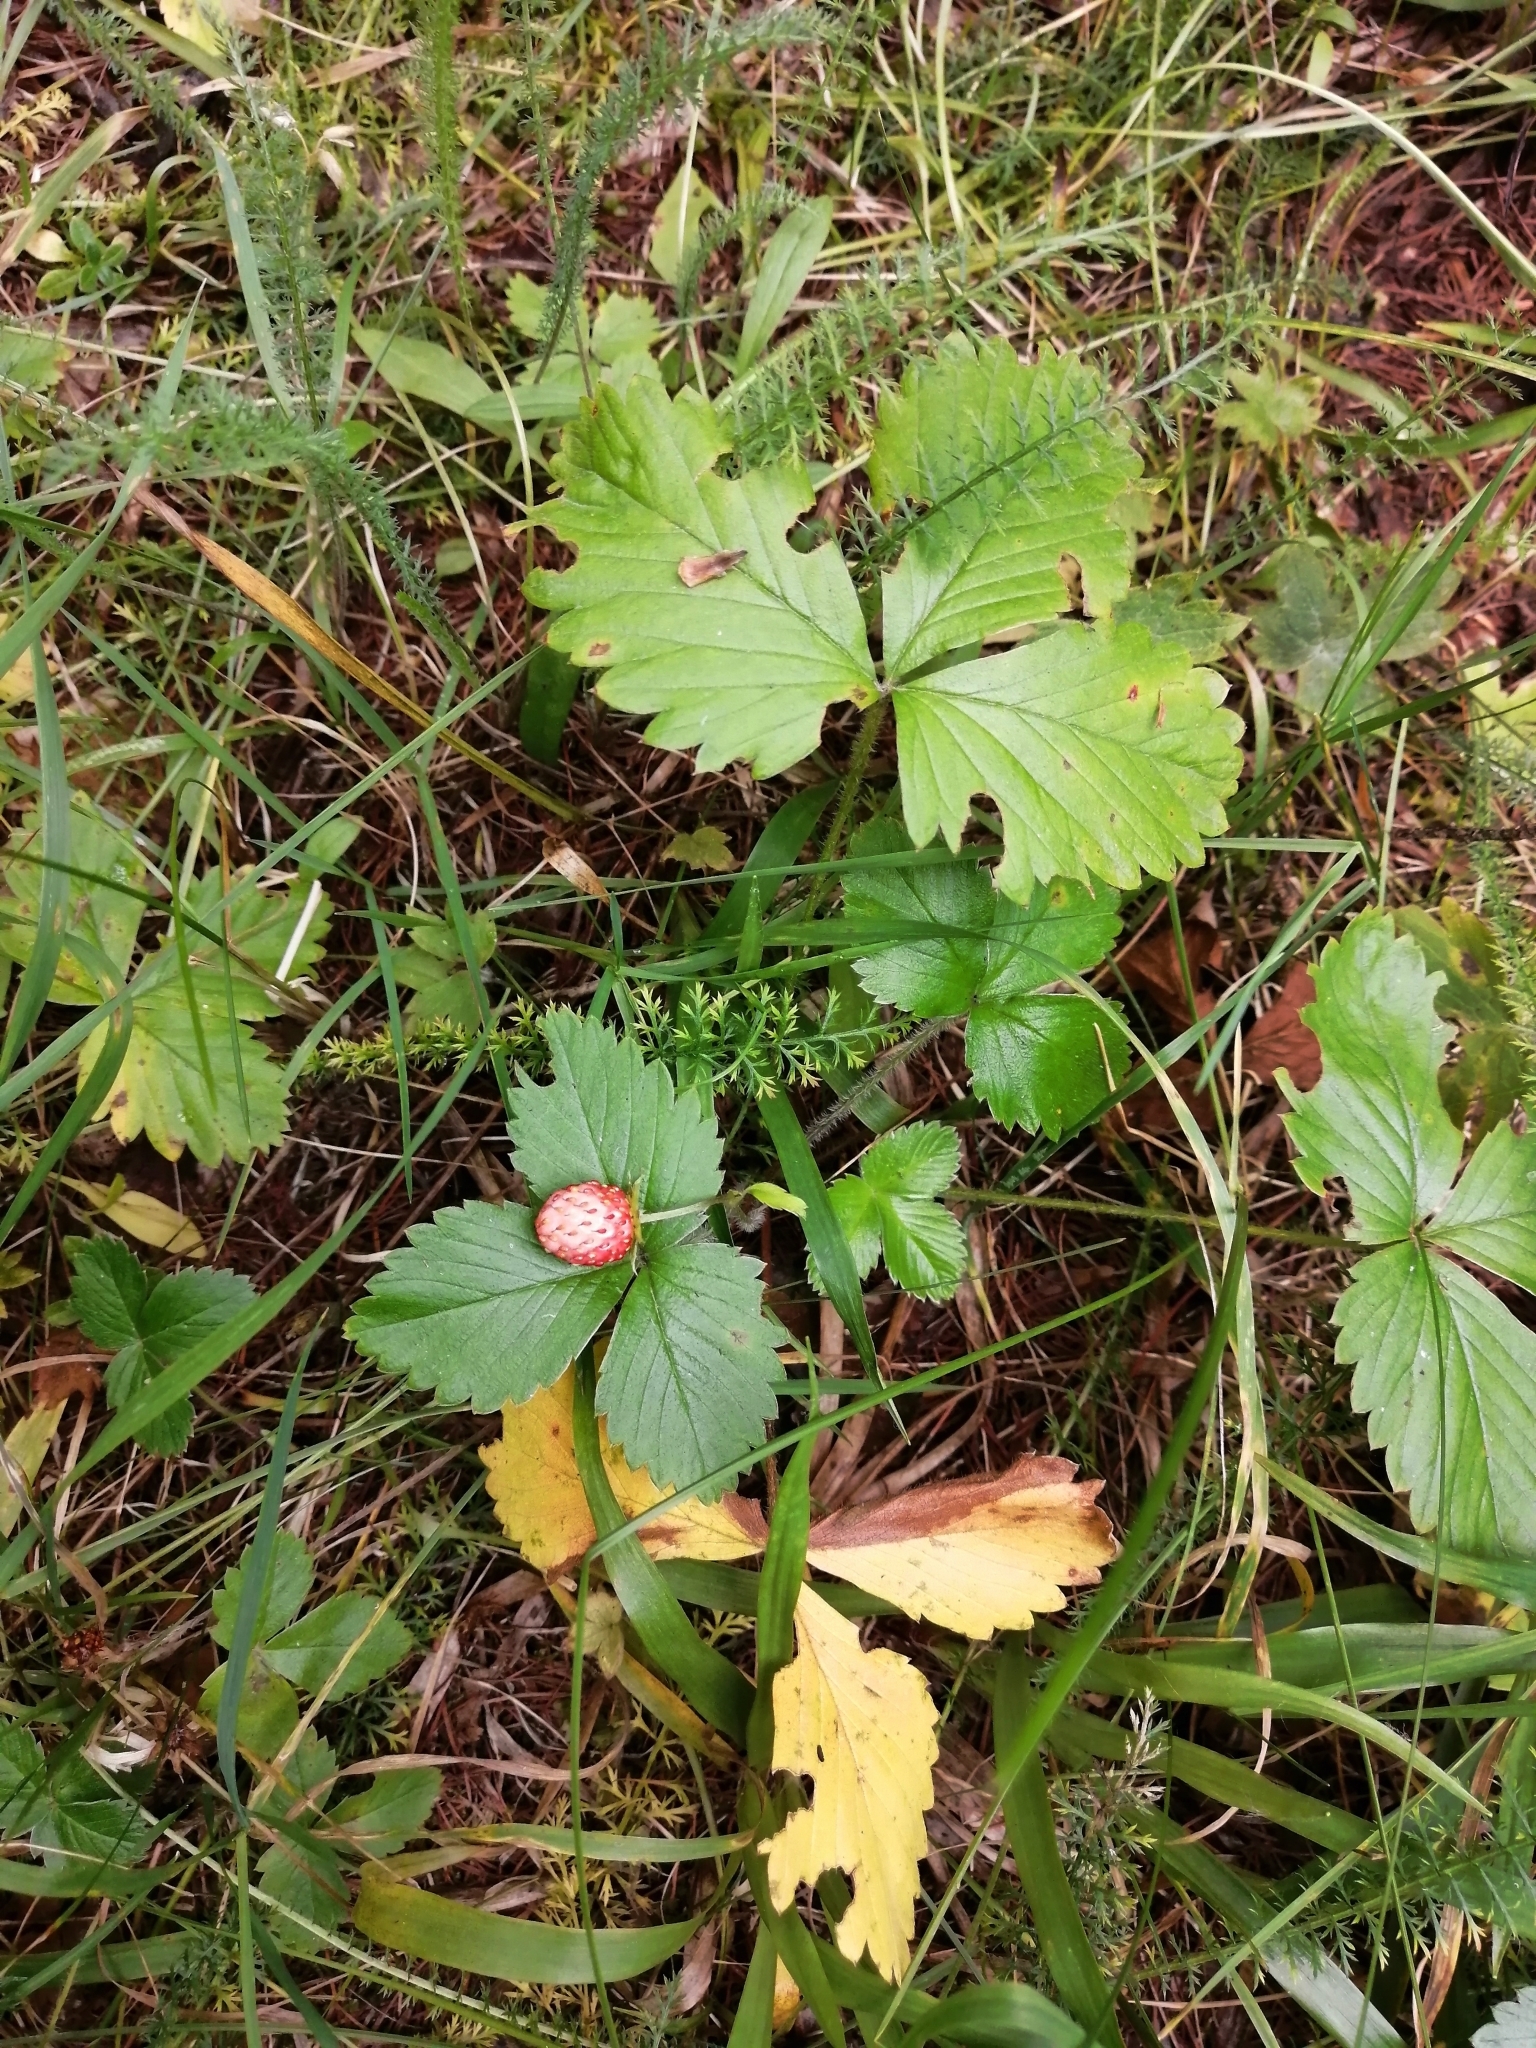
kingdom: Plantae
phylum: Tracheophyta
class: Magnoliopsida
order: Rosales
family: Rosaceae
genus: Fragaria
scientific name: Fragaria vesca
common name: Wild strawberry
